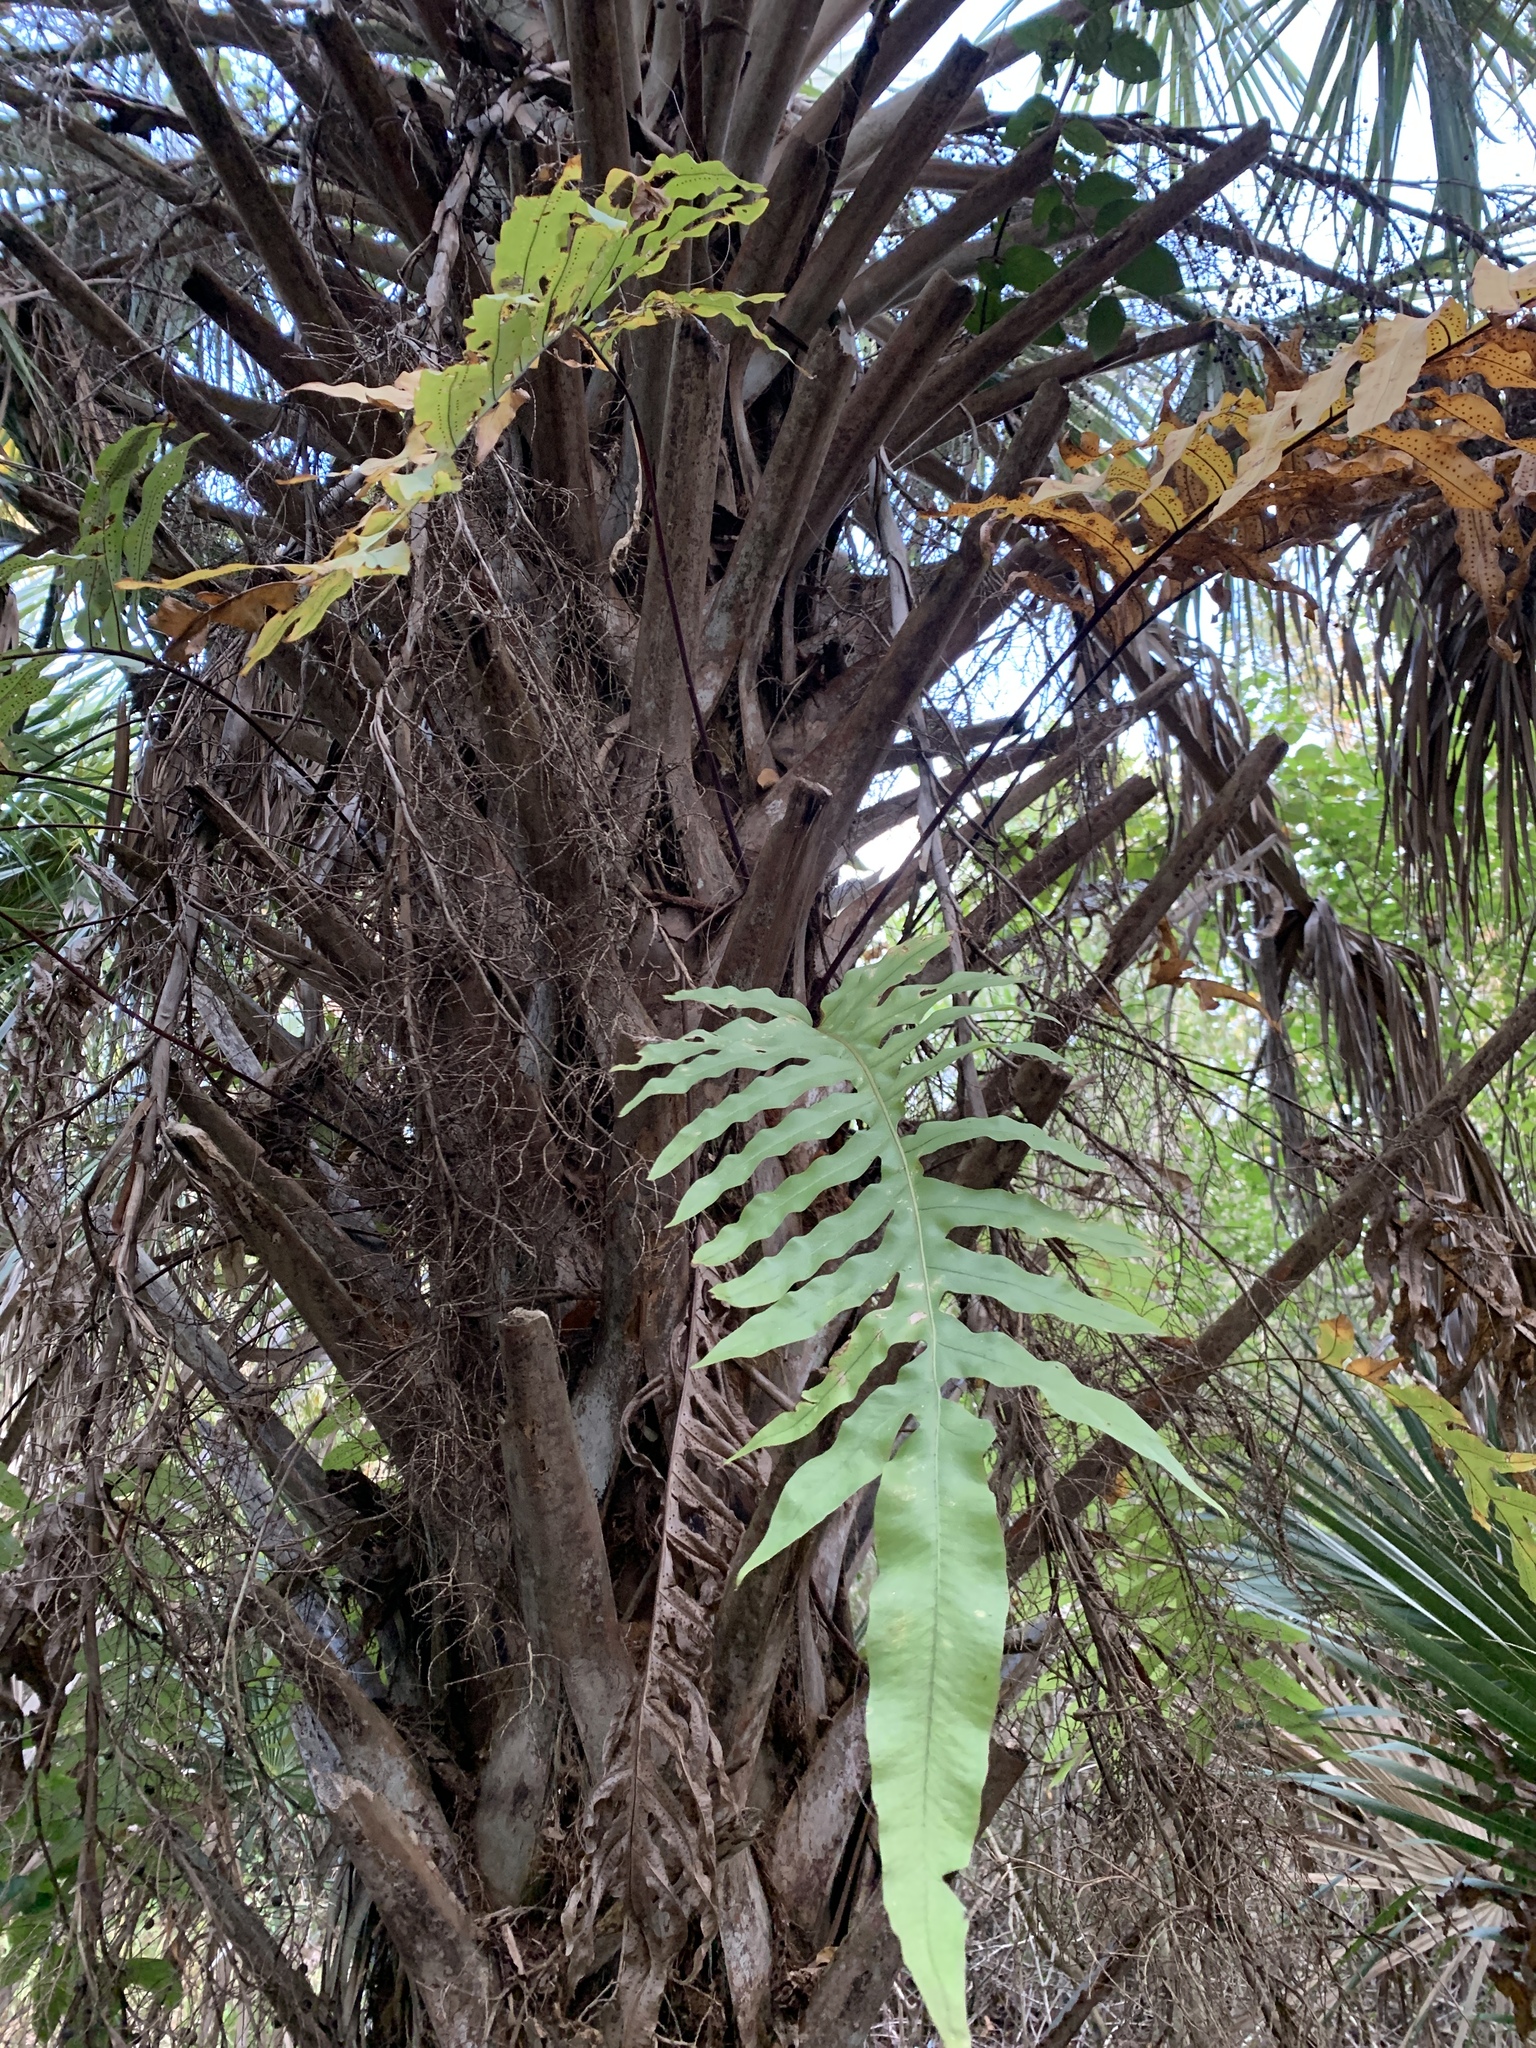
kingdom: Plantae
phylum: Tracheophyta
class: Polypodiopsida
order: Polypodiales
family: Polypodiaceae
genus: Phlebodium
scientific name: Phlebodium aureum
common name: Gold-foot fern
